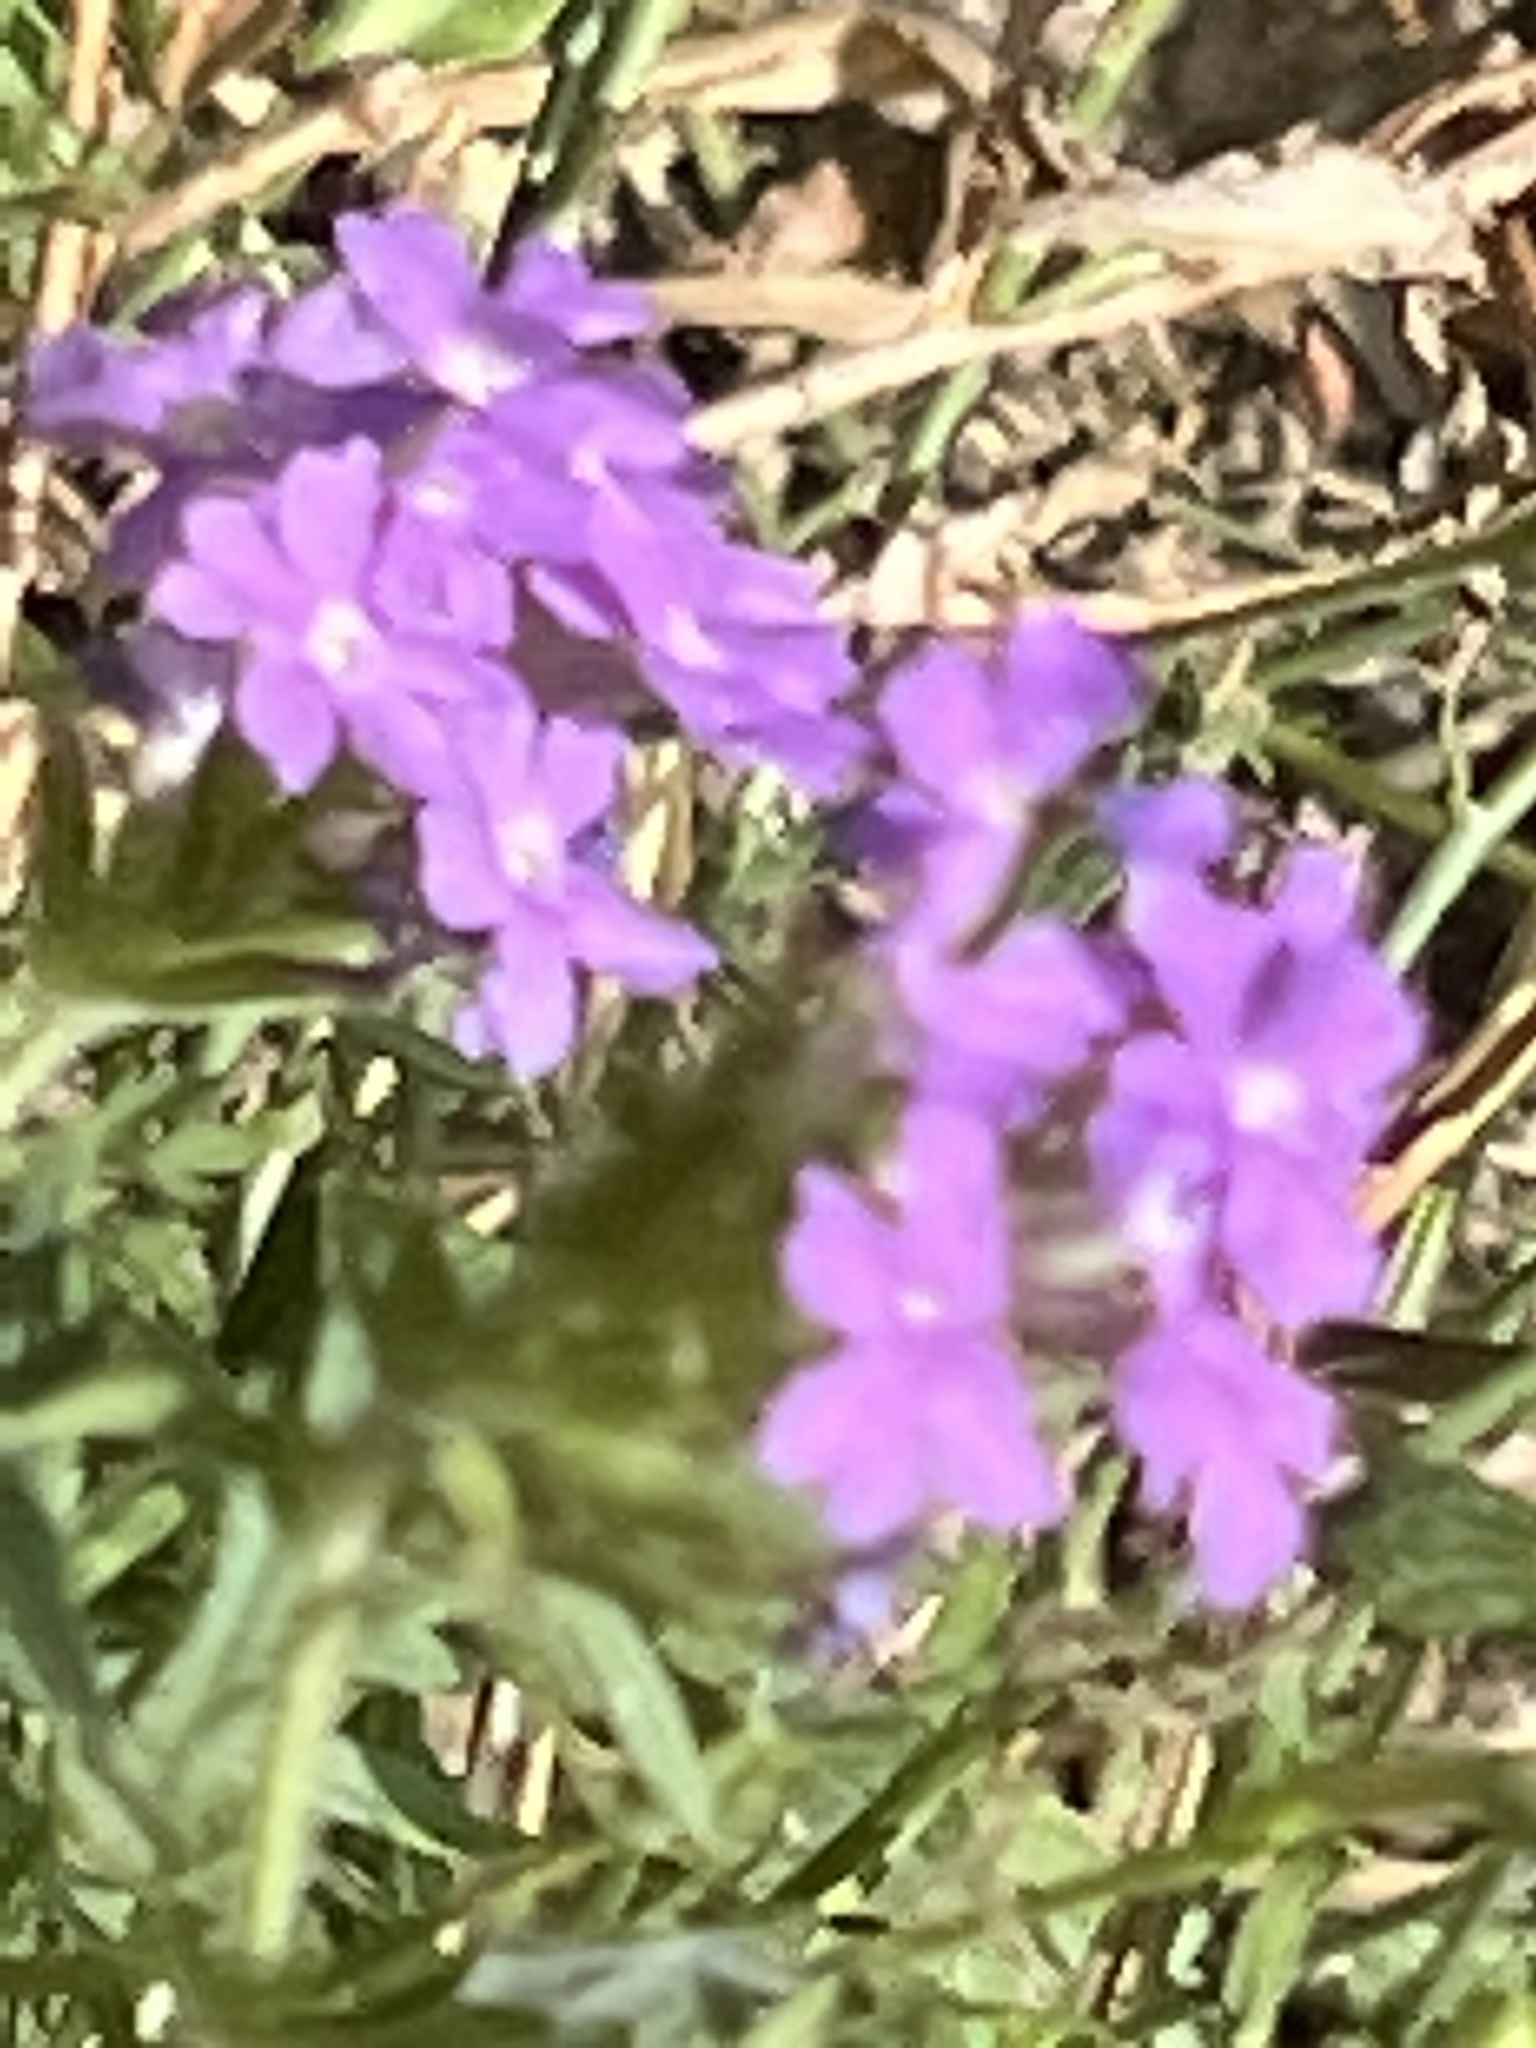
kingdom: Plantae
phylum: Tracheophyta
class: Magnoliopsida
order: Lamiales
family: Verbenaceae
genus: Verbena
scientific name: Verbena bipinnatifida
